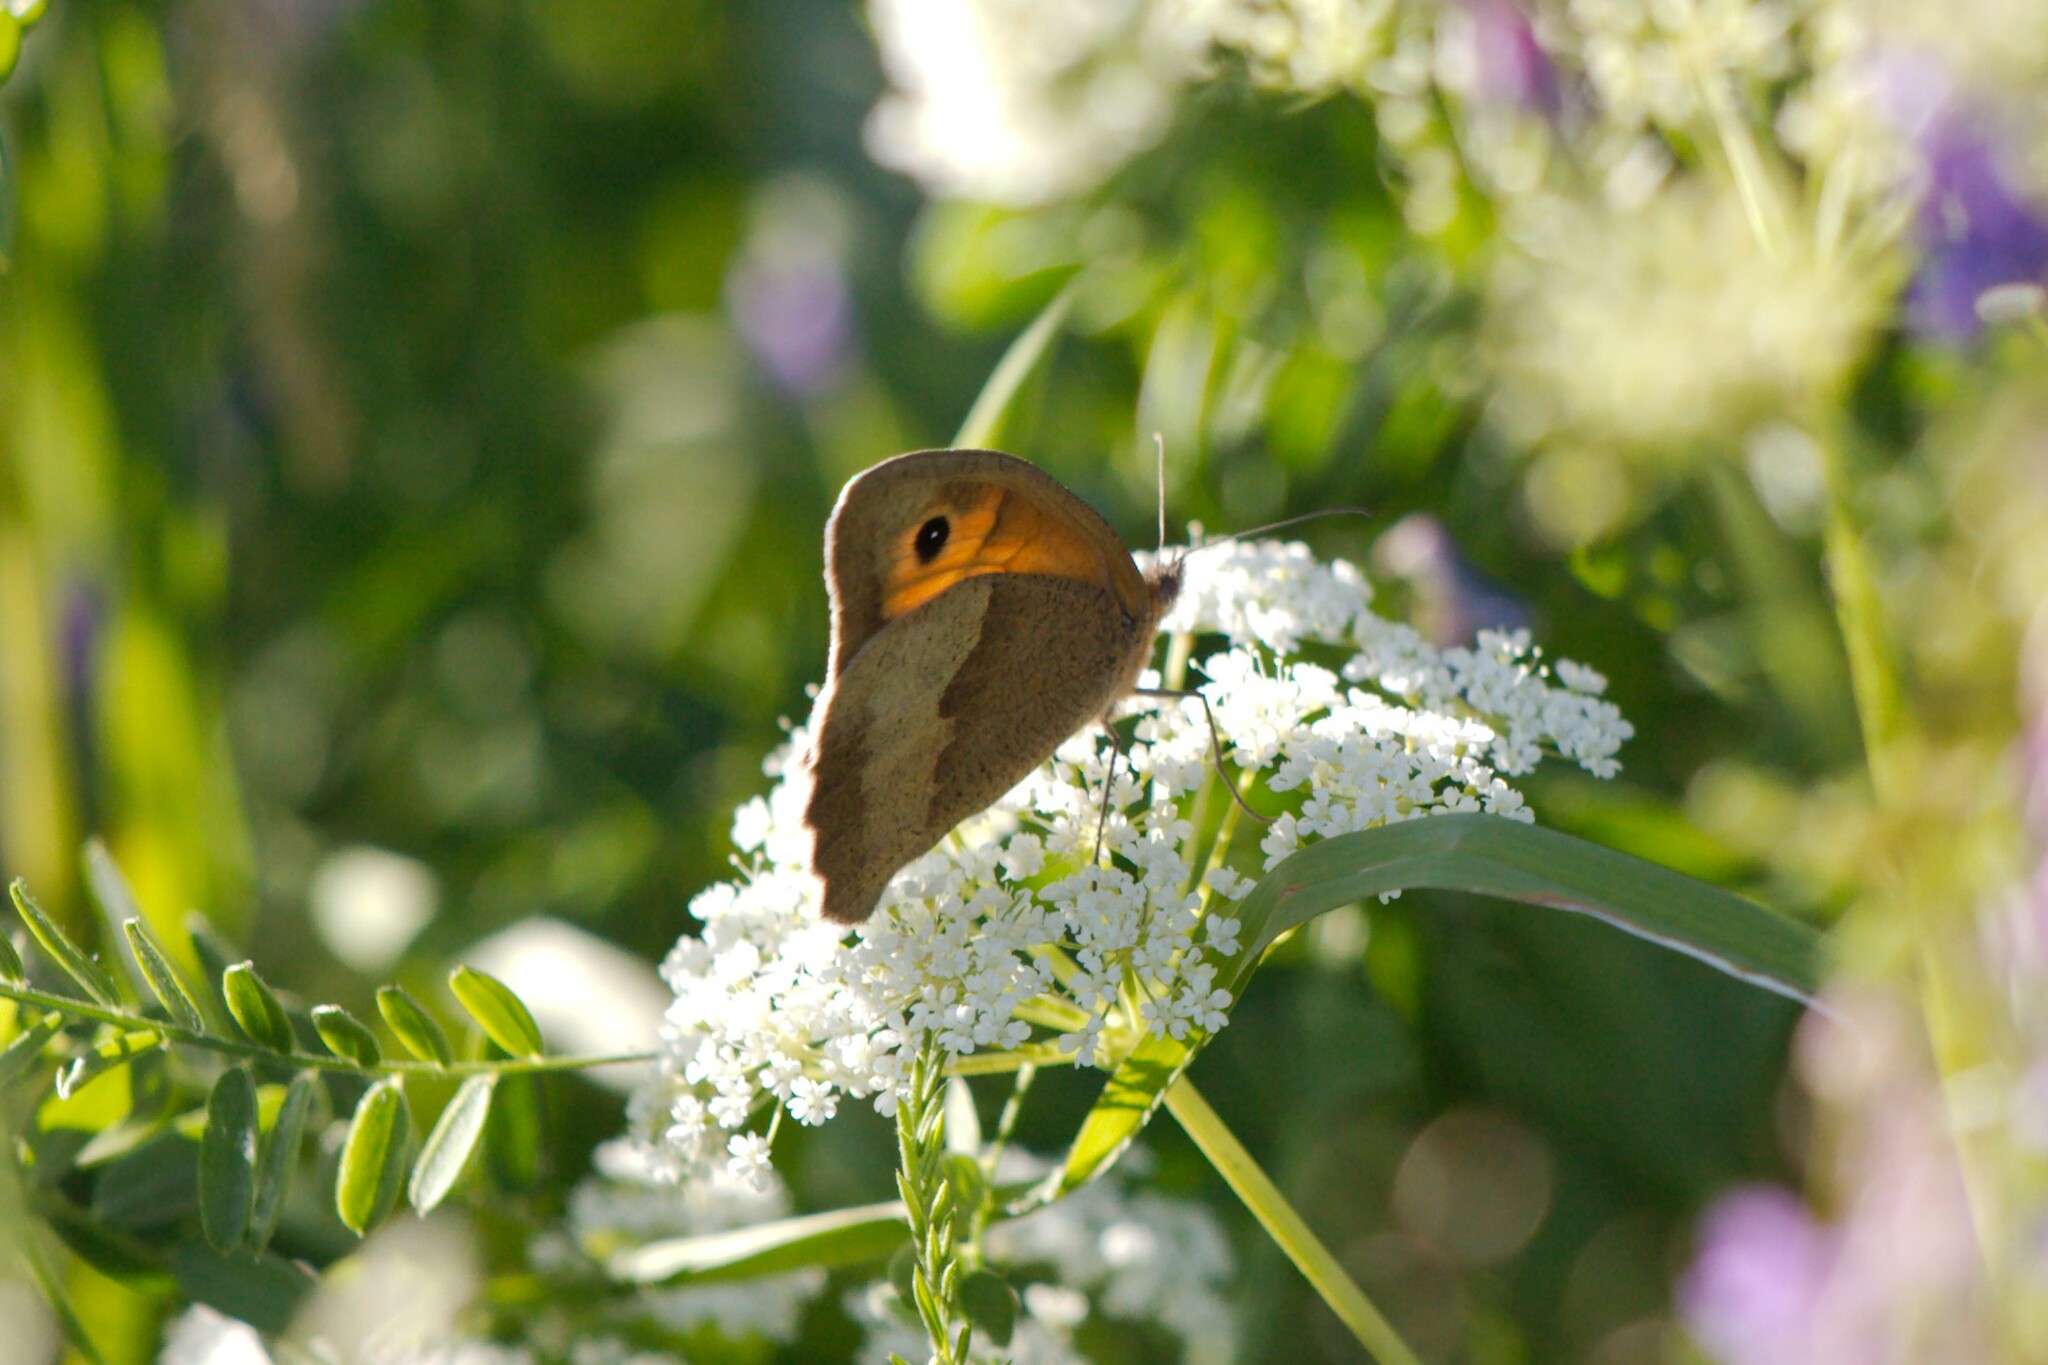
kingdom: Animalia
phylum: Arthropoda
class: Insecta
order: Lepidoptera
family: Nymphalidae
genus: Maniola
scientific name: Maniola jurtina
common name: Meadow brown
